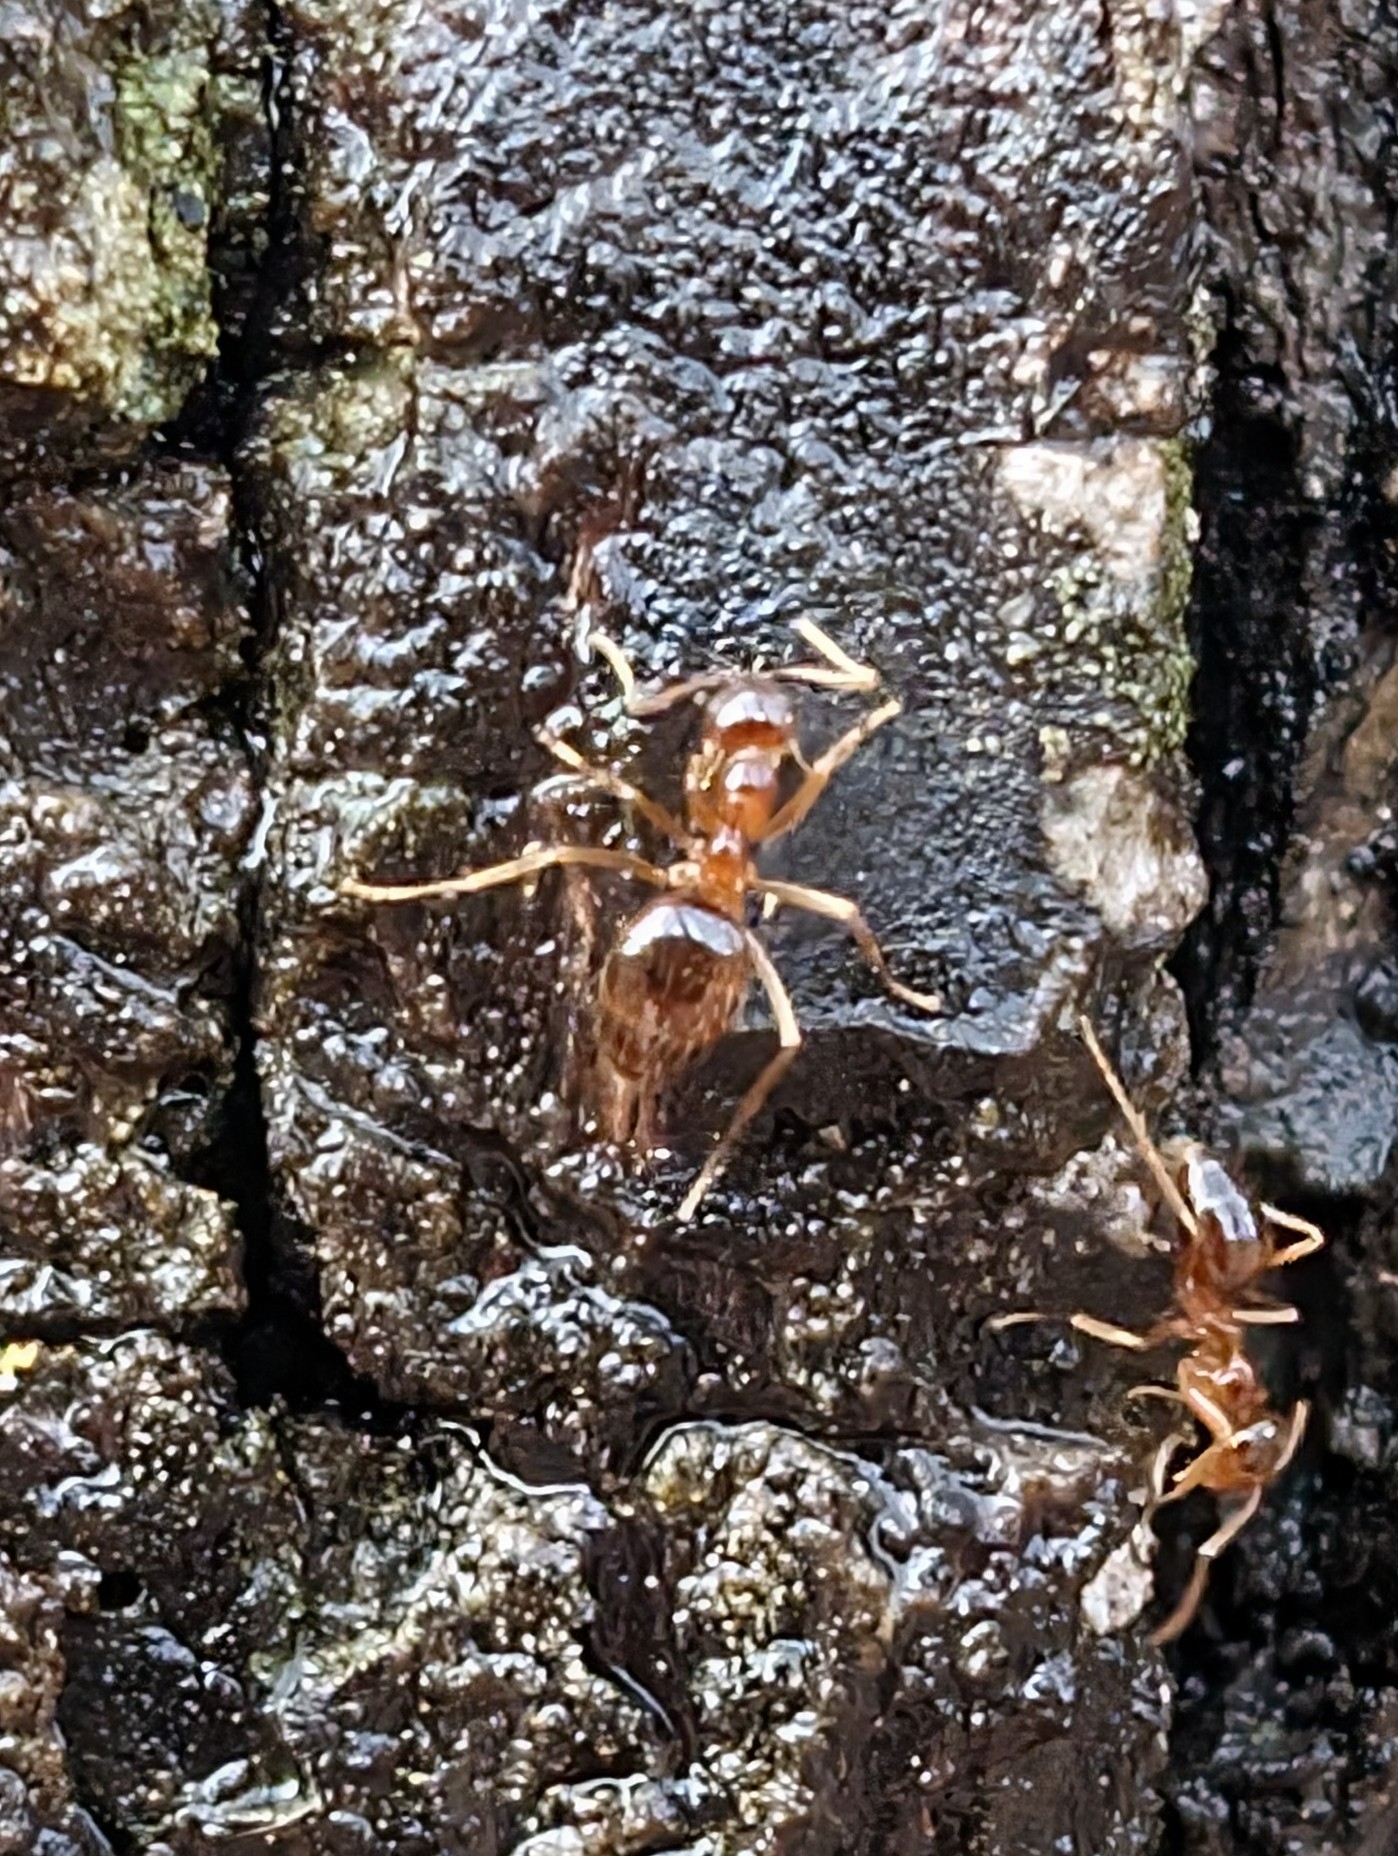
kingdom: Animalia
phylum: Arthropoda
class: Insecta
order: Hymenoptera
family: Formicidae
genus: Prenolepis
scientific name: Prenolepis imparis
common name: Small honey ant
